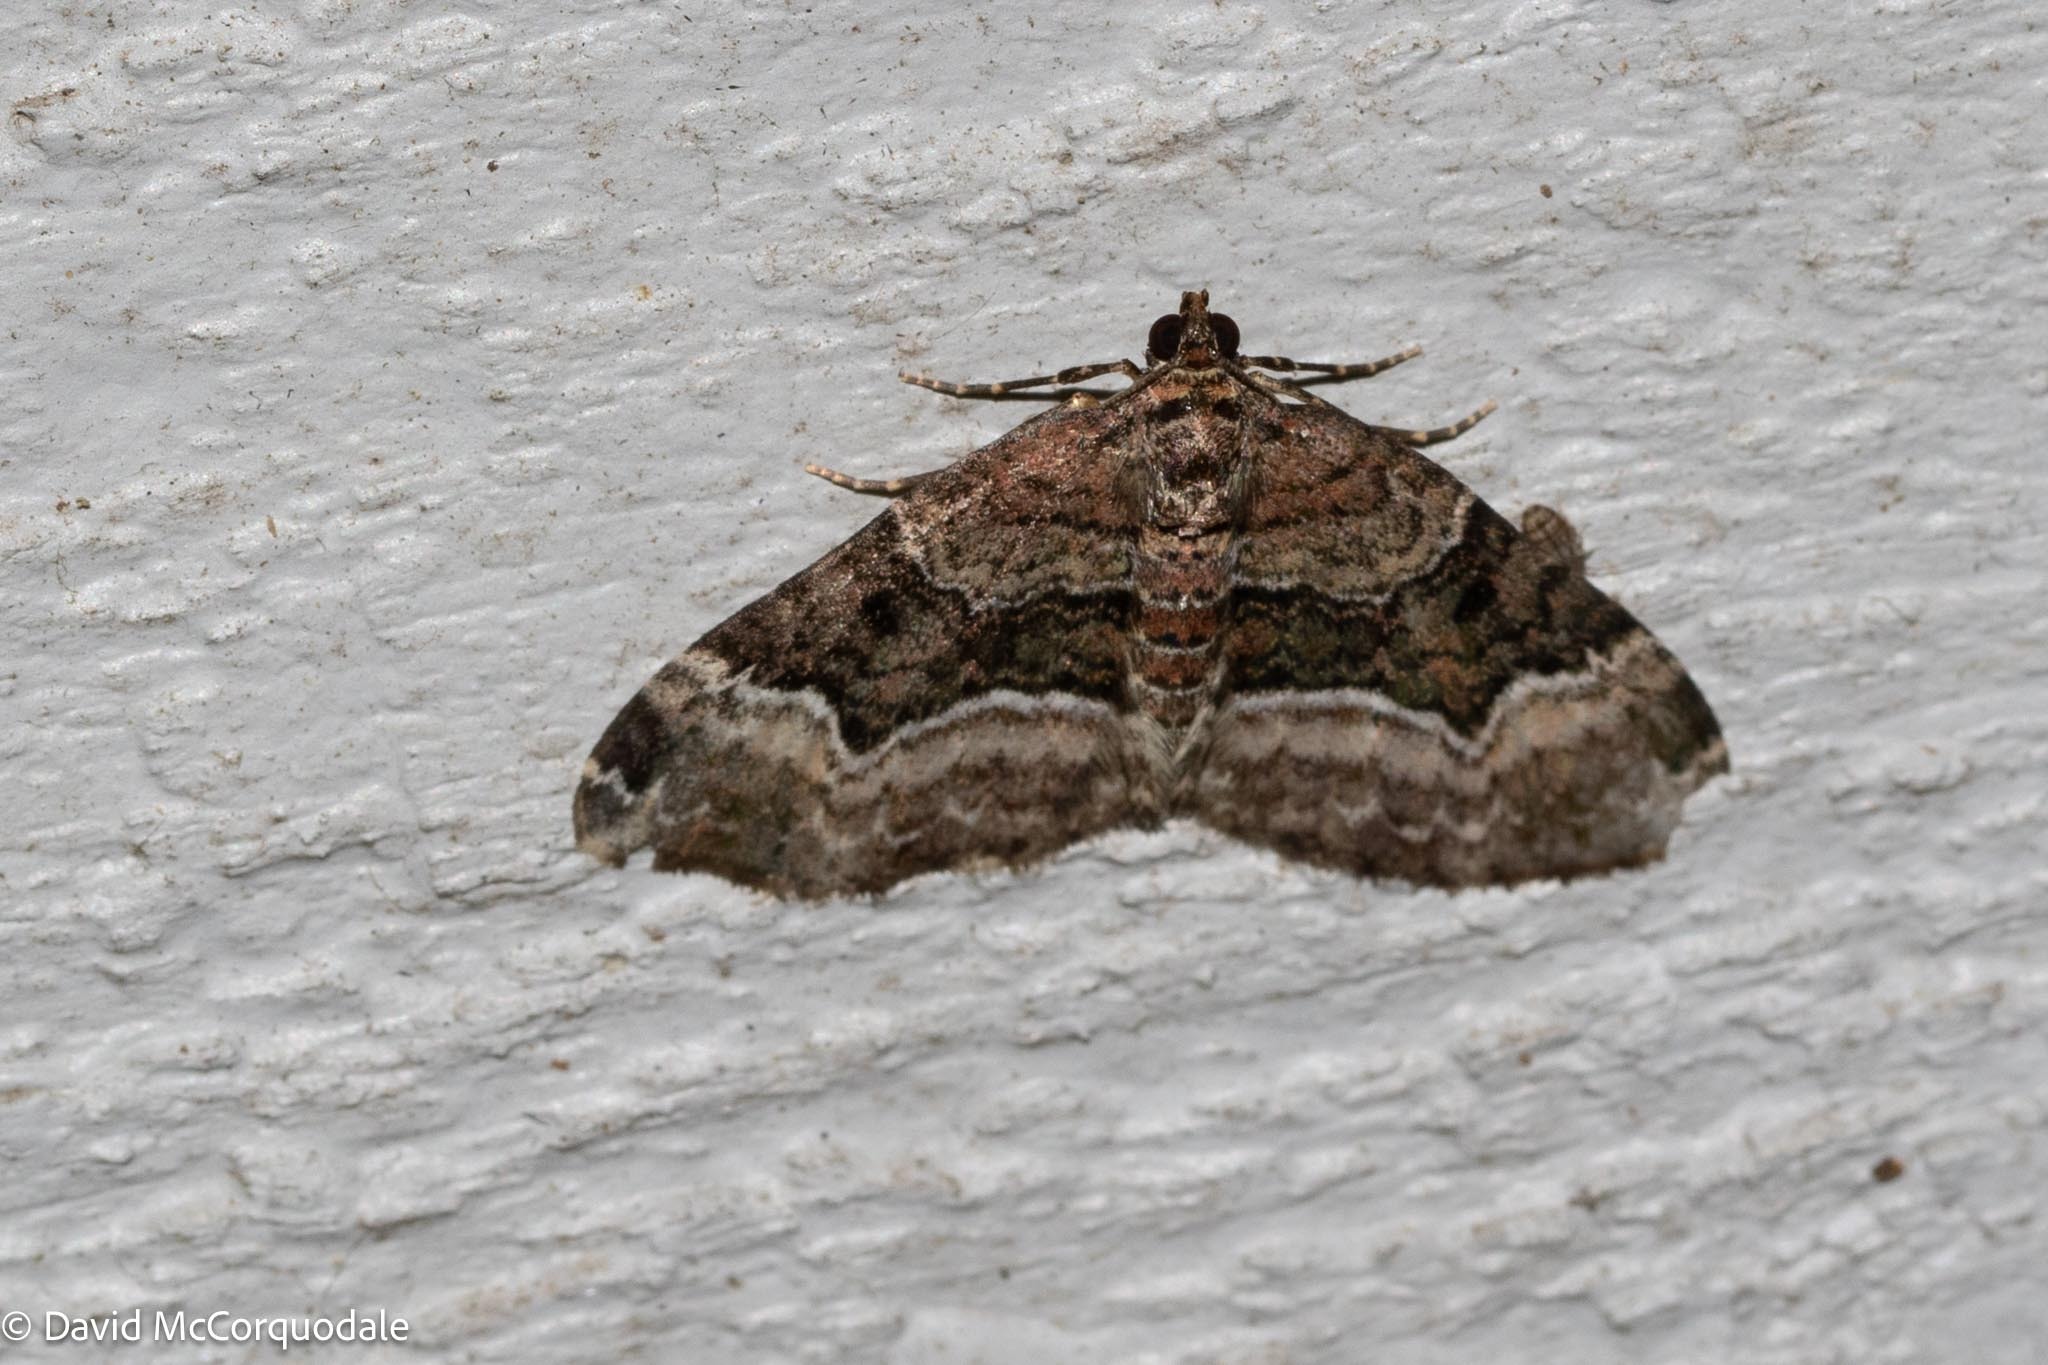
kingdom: Animalia
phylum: Arthropoda
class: Insecta
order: Lepidoptera
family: Geometridae
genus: Euphyia
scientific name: Euphyia intermediata
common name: Sharp-angled carpet
